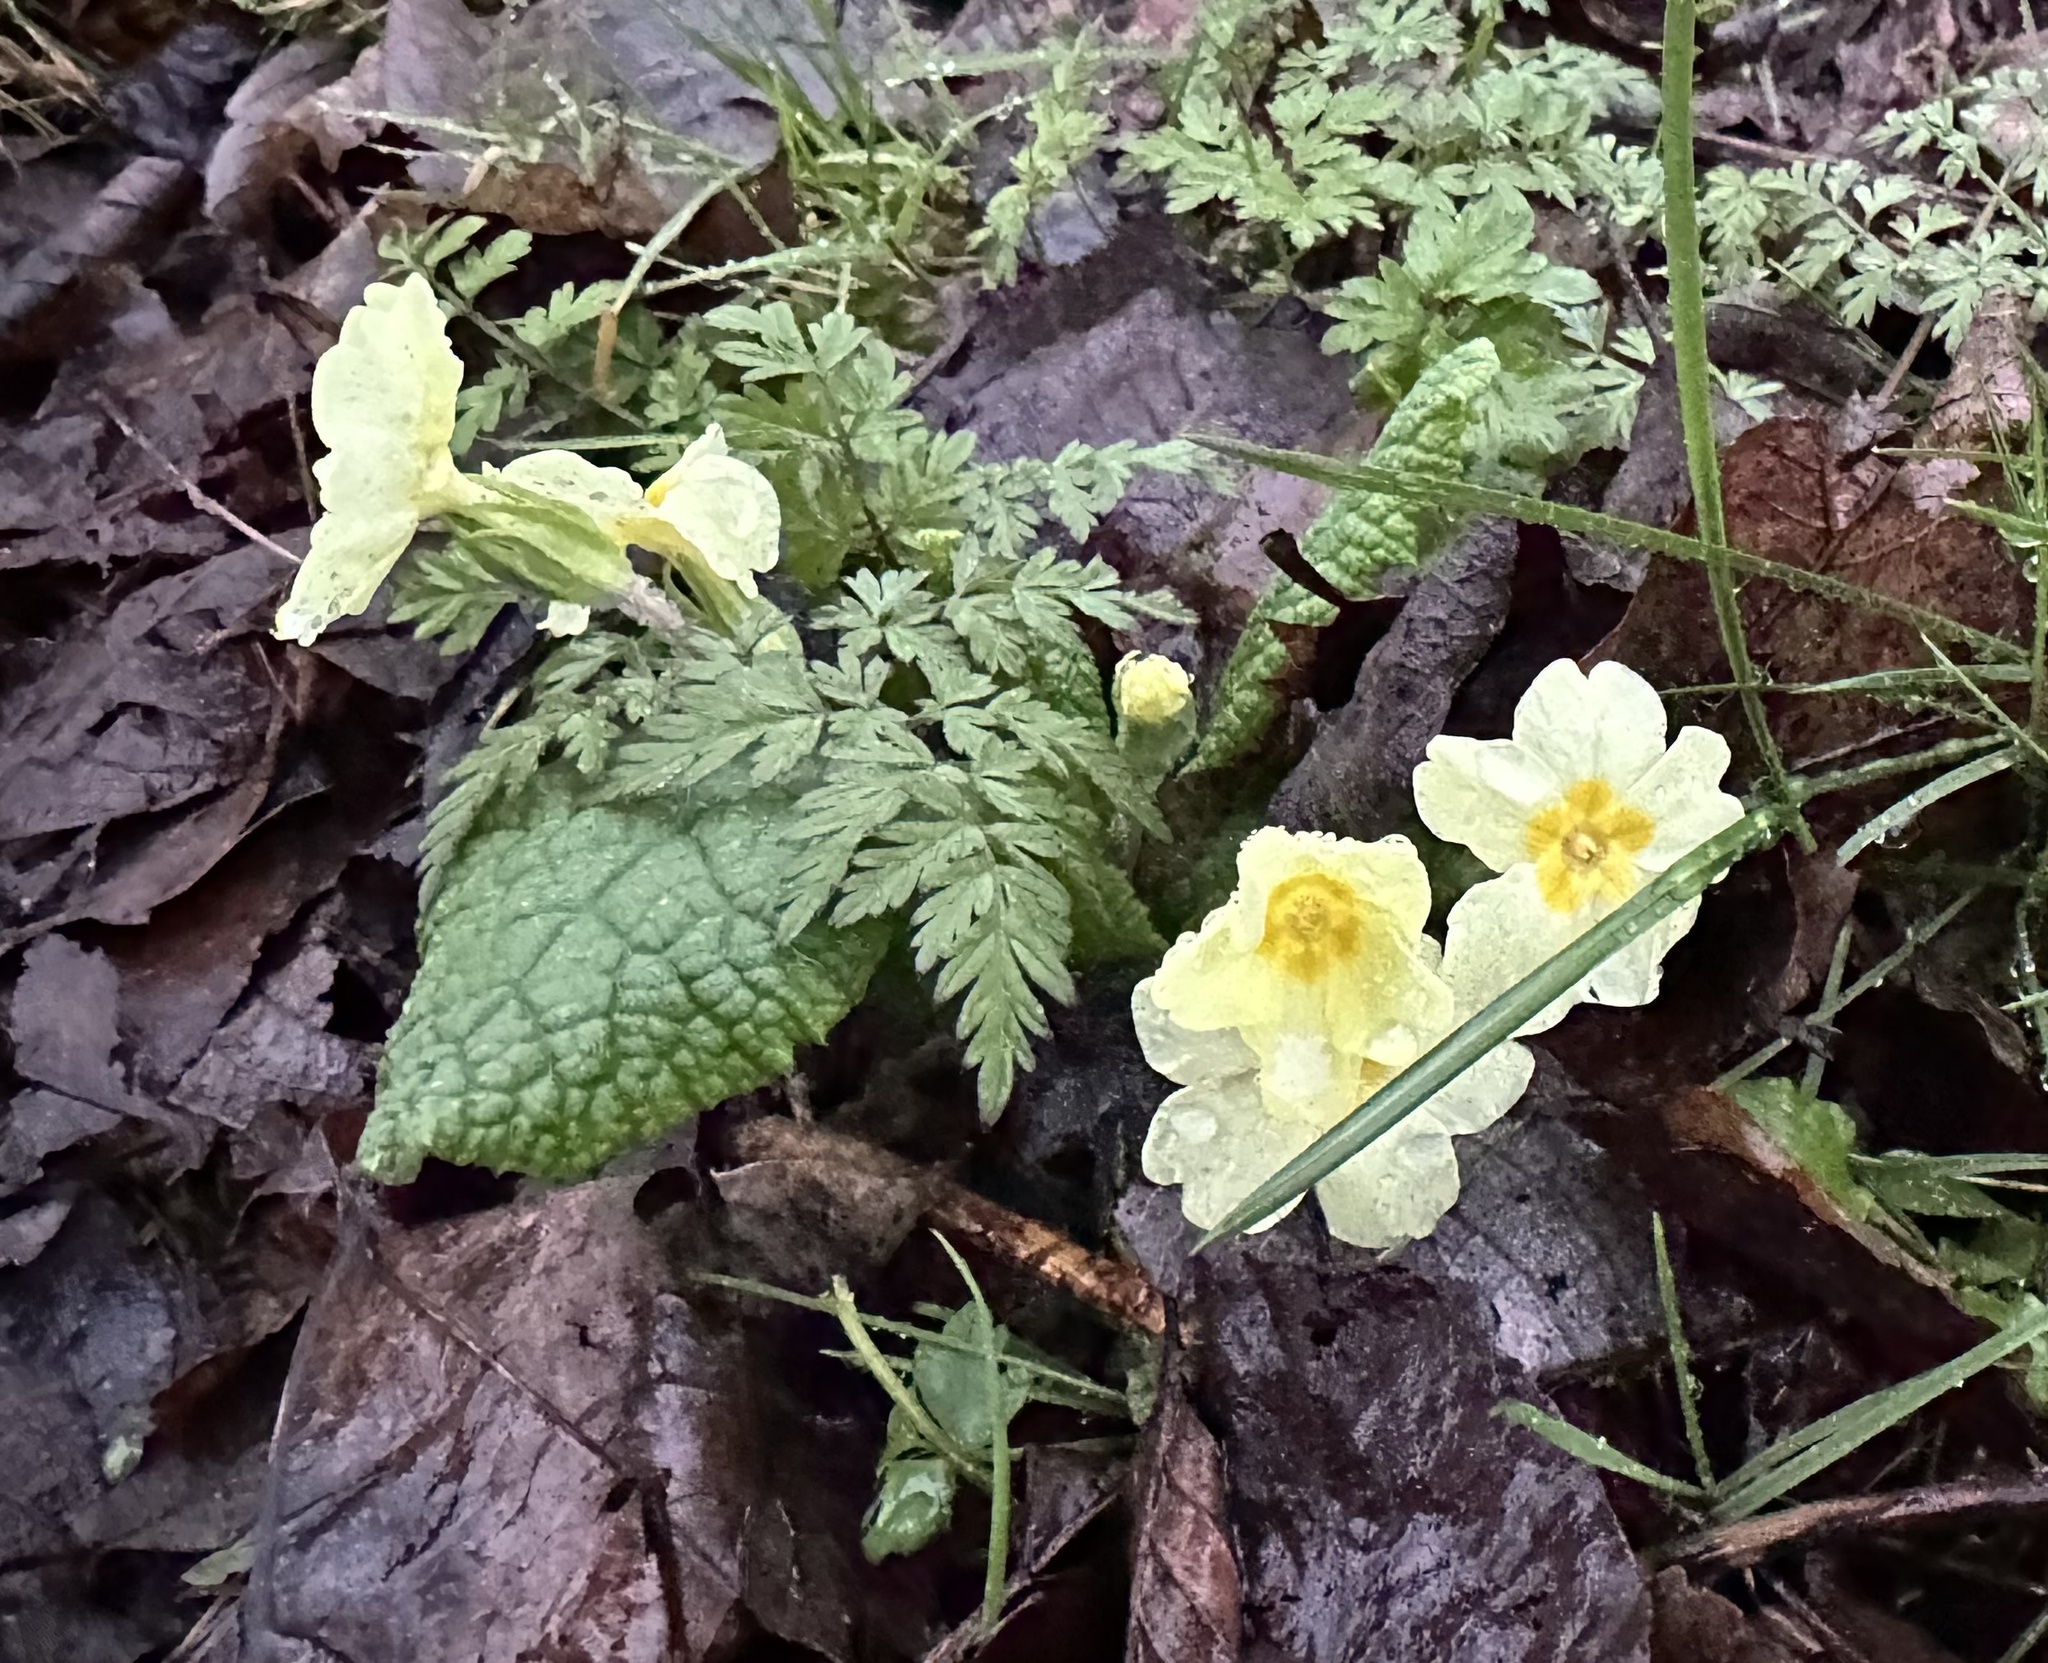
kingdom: Plantae
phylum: Tracheophyta
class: Magnoliopsida
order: Ericales
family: Primulaceae
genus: Primula
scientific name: Primula vulgaris
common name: Primrose
